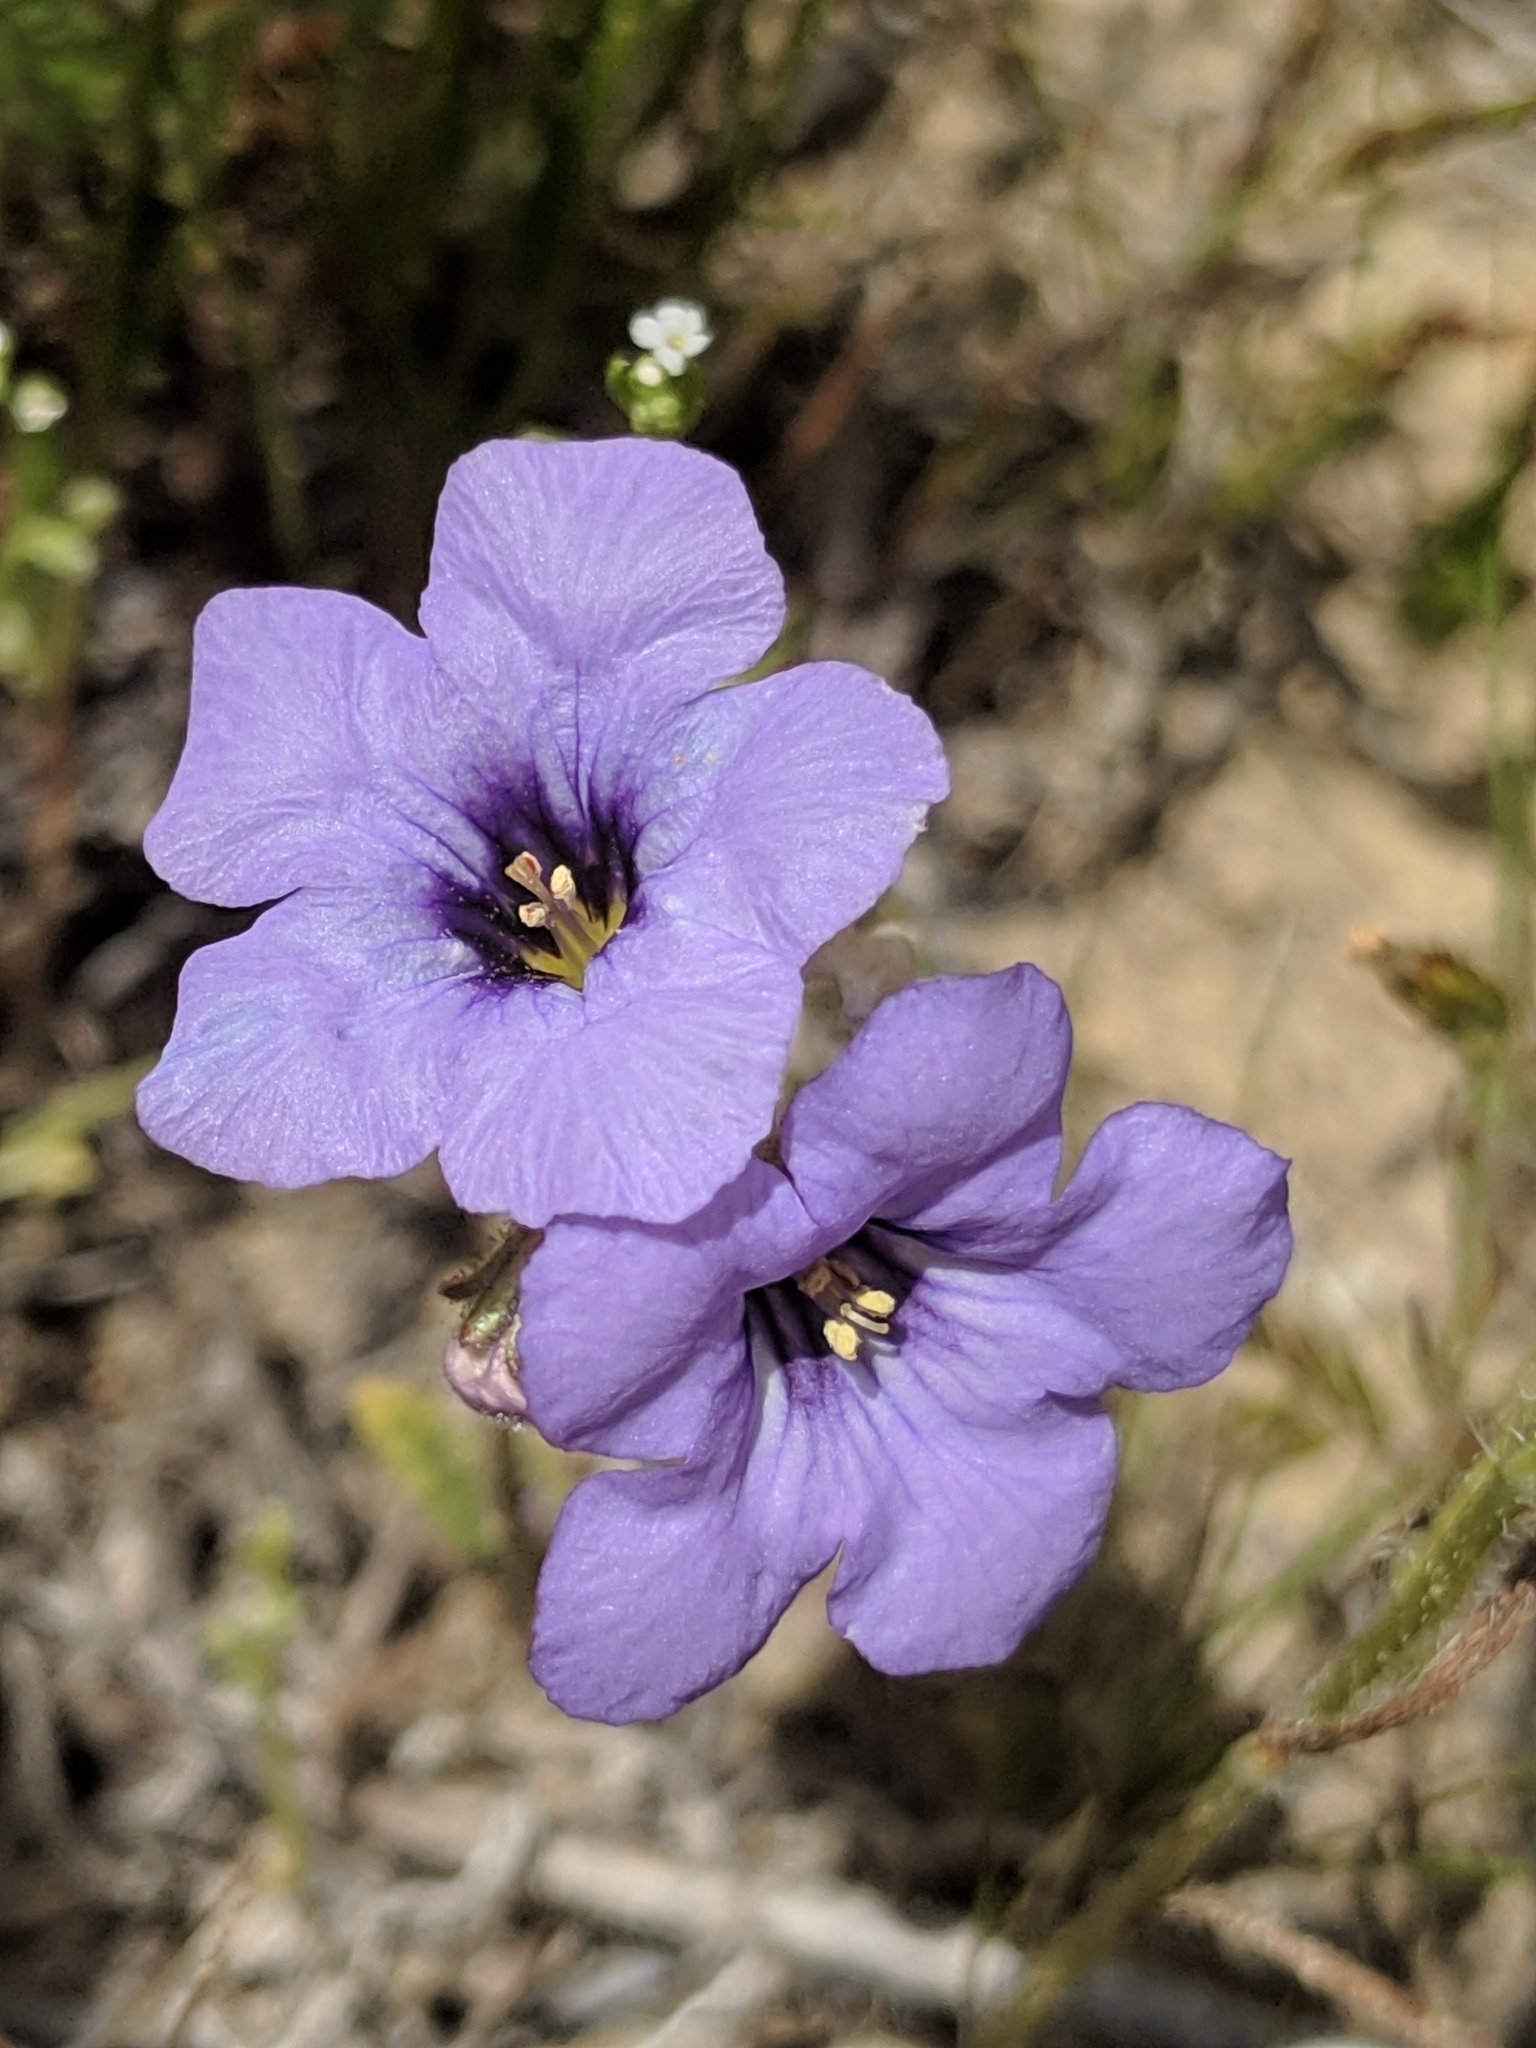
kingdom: Plantae
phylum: Tracheophyta
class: Magnoliopsida
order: Boraginales
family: Hydrophyllaceae
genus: Phacelia
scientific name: Phacelia fremontii
